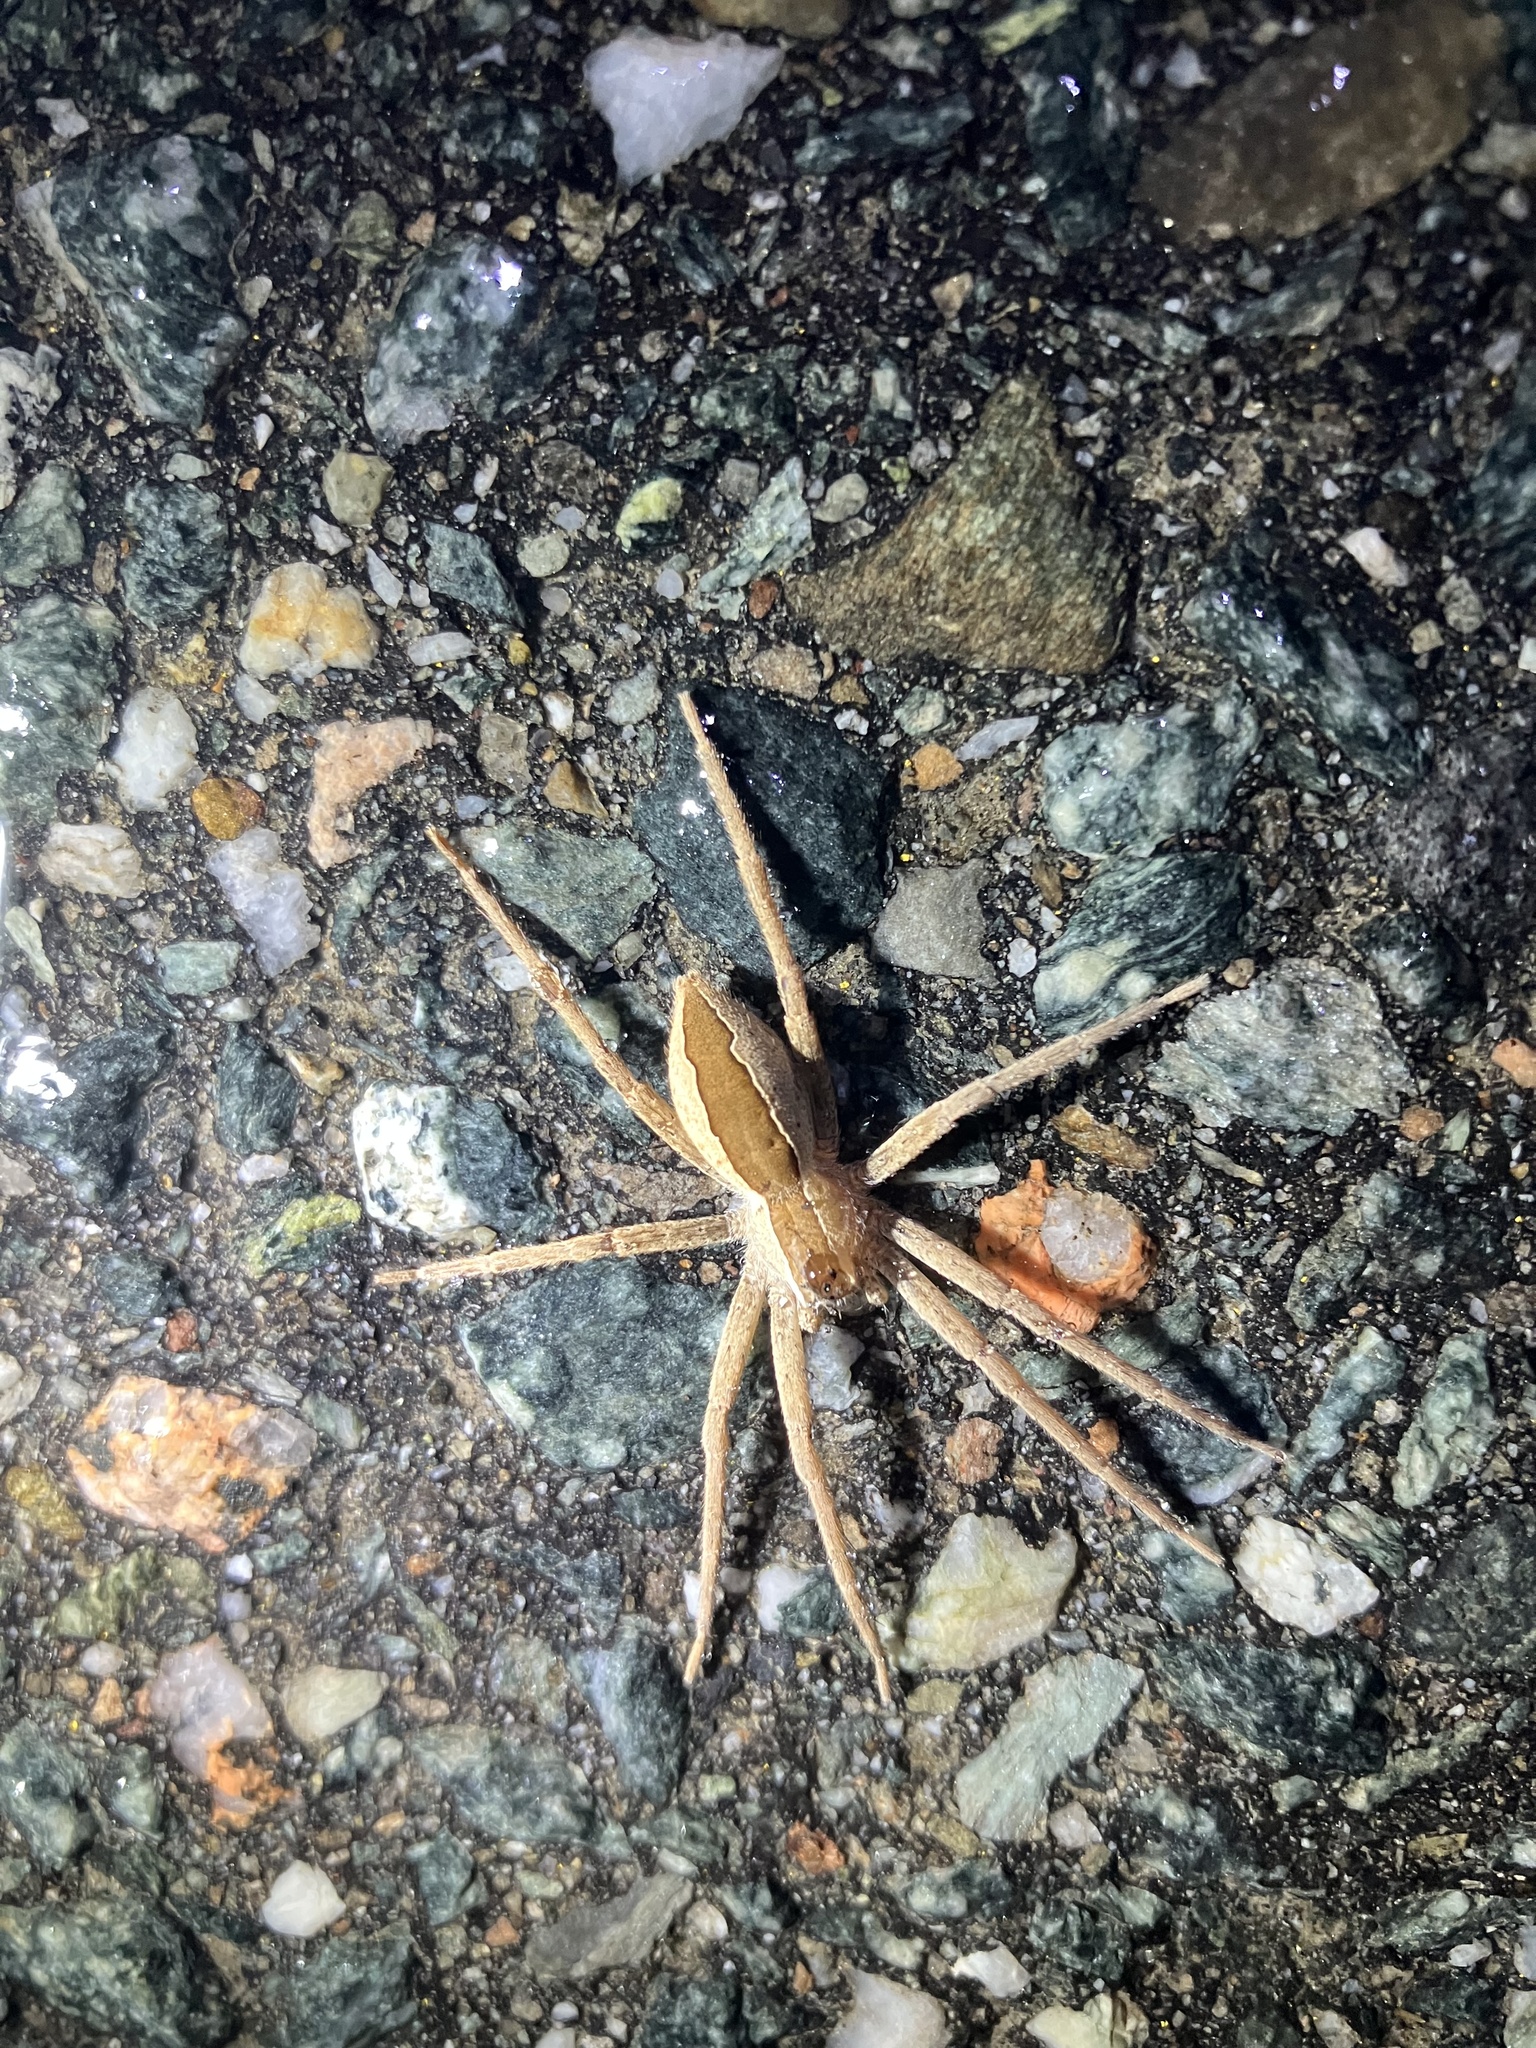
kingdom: Animalia
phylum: Arthropoda
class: Arachnida
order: Araneae
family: Pisauridae
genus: Pisaurina
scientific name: Pisaurina mira
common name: American nursery web spider
